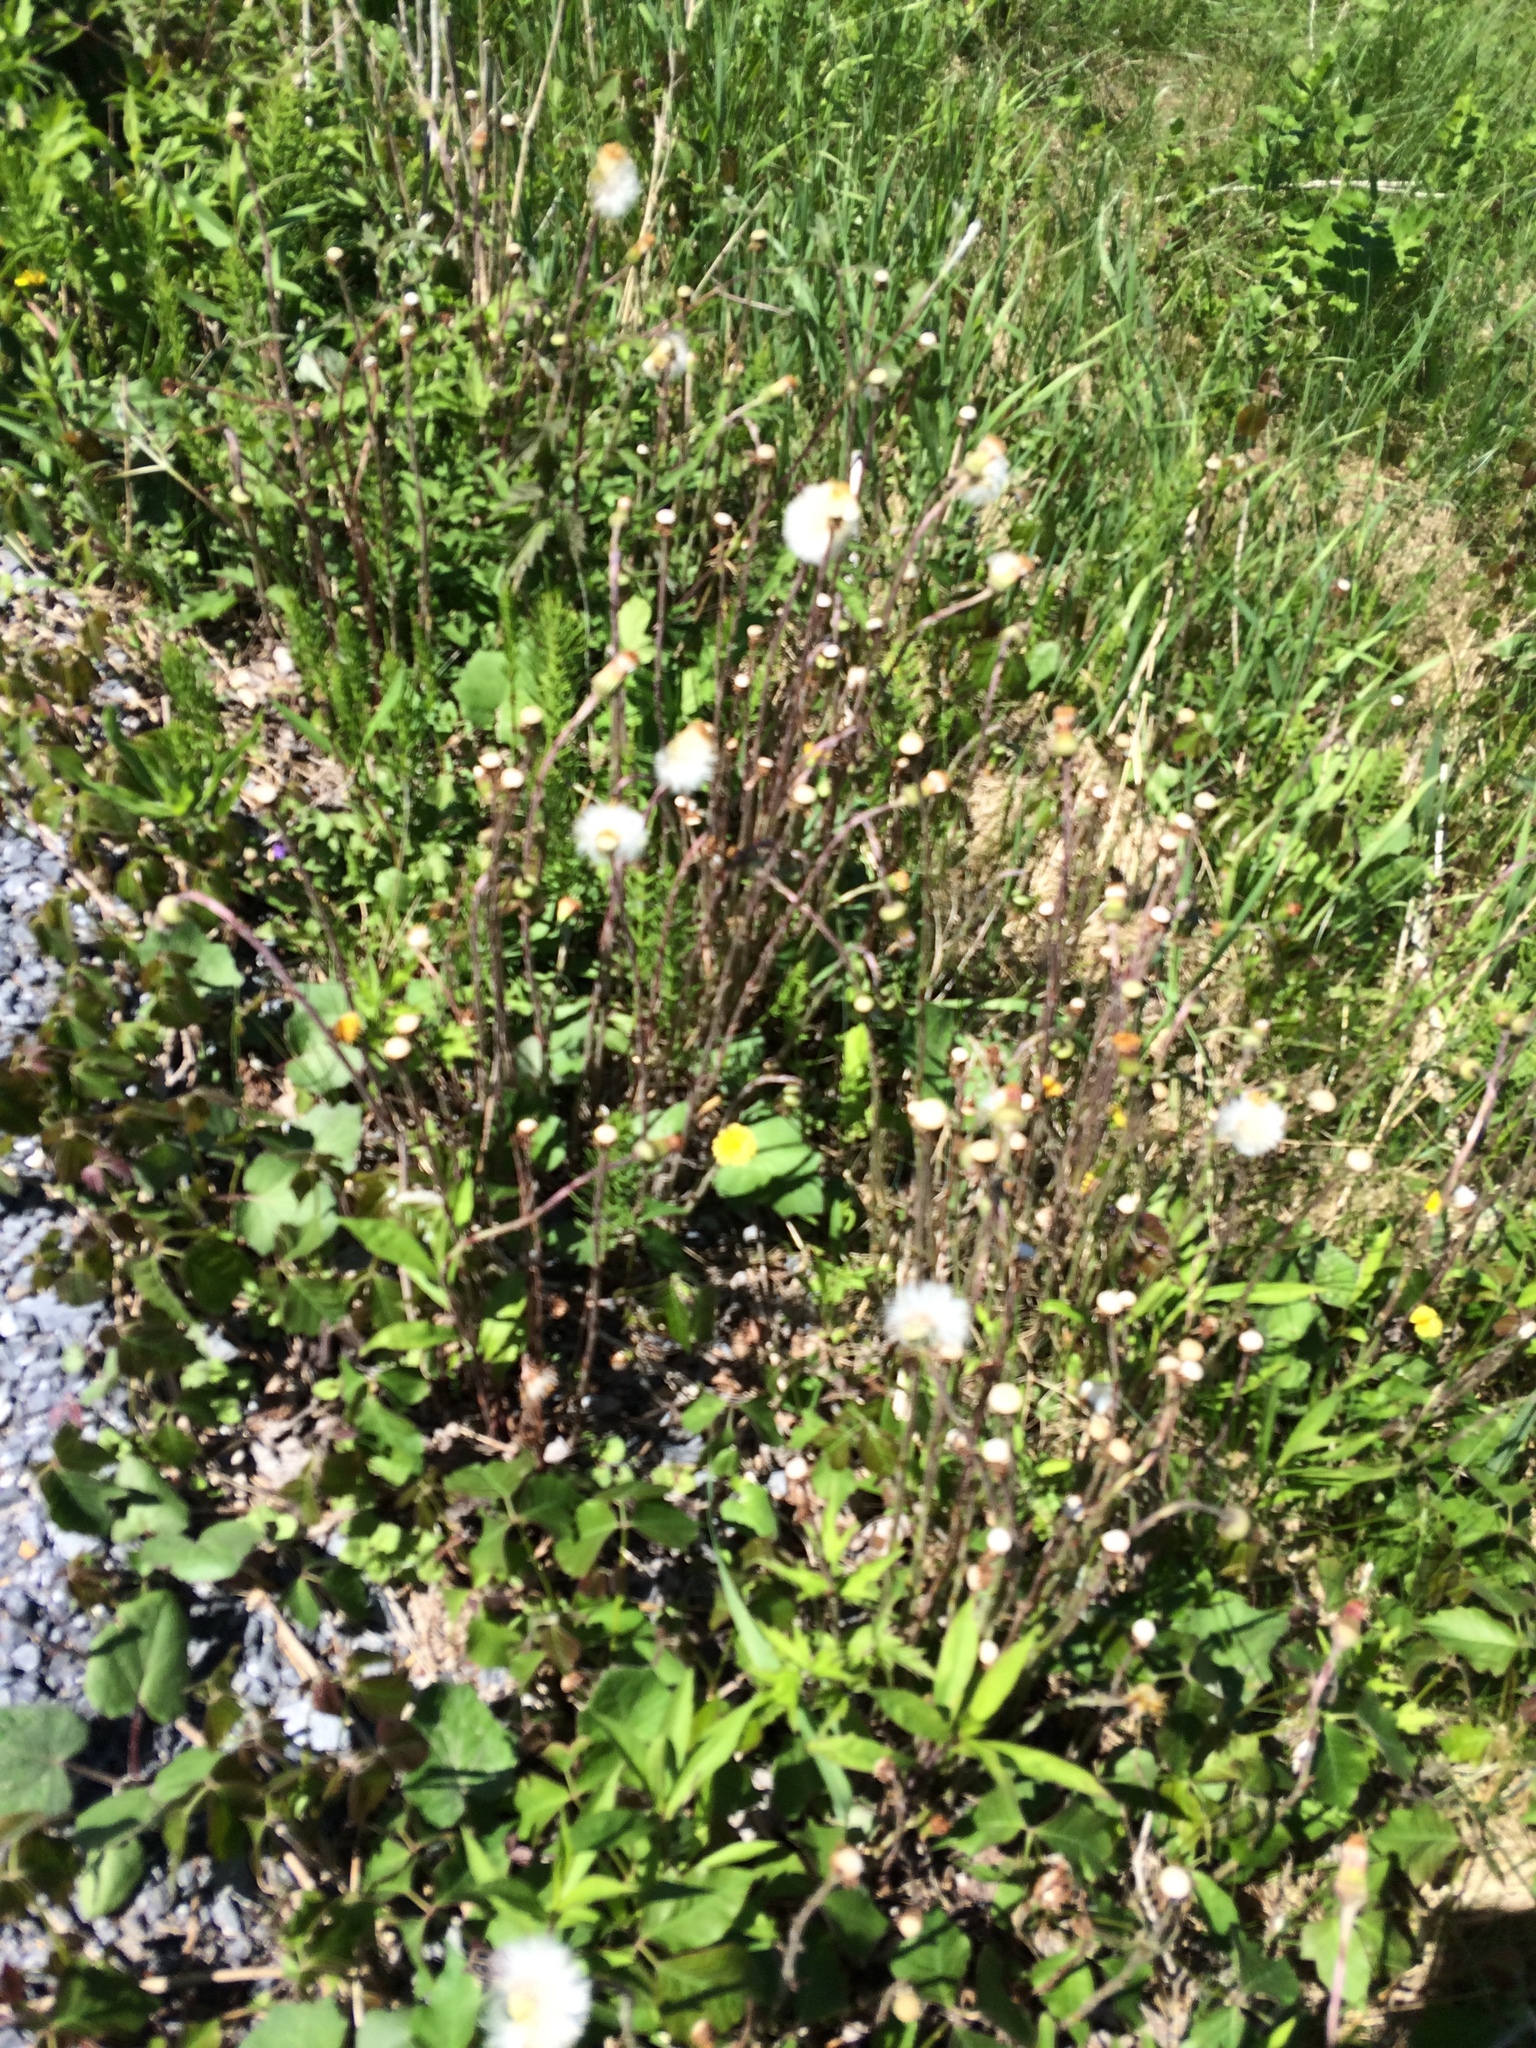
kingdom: Plantae
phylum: Tracheophyta
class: Magnoliopsida
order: Asterales
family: Asteraceae
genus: Tussilago
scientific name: Tussilago farfara
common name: Coltsfoot
